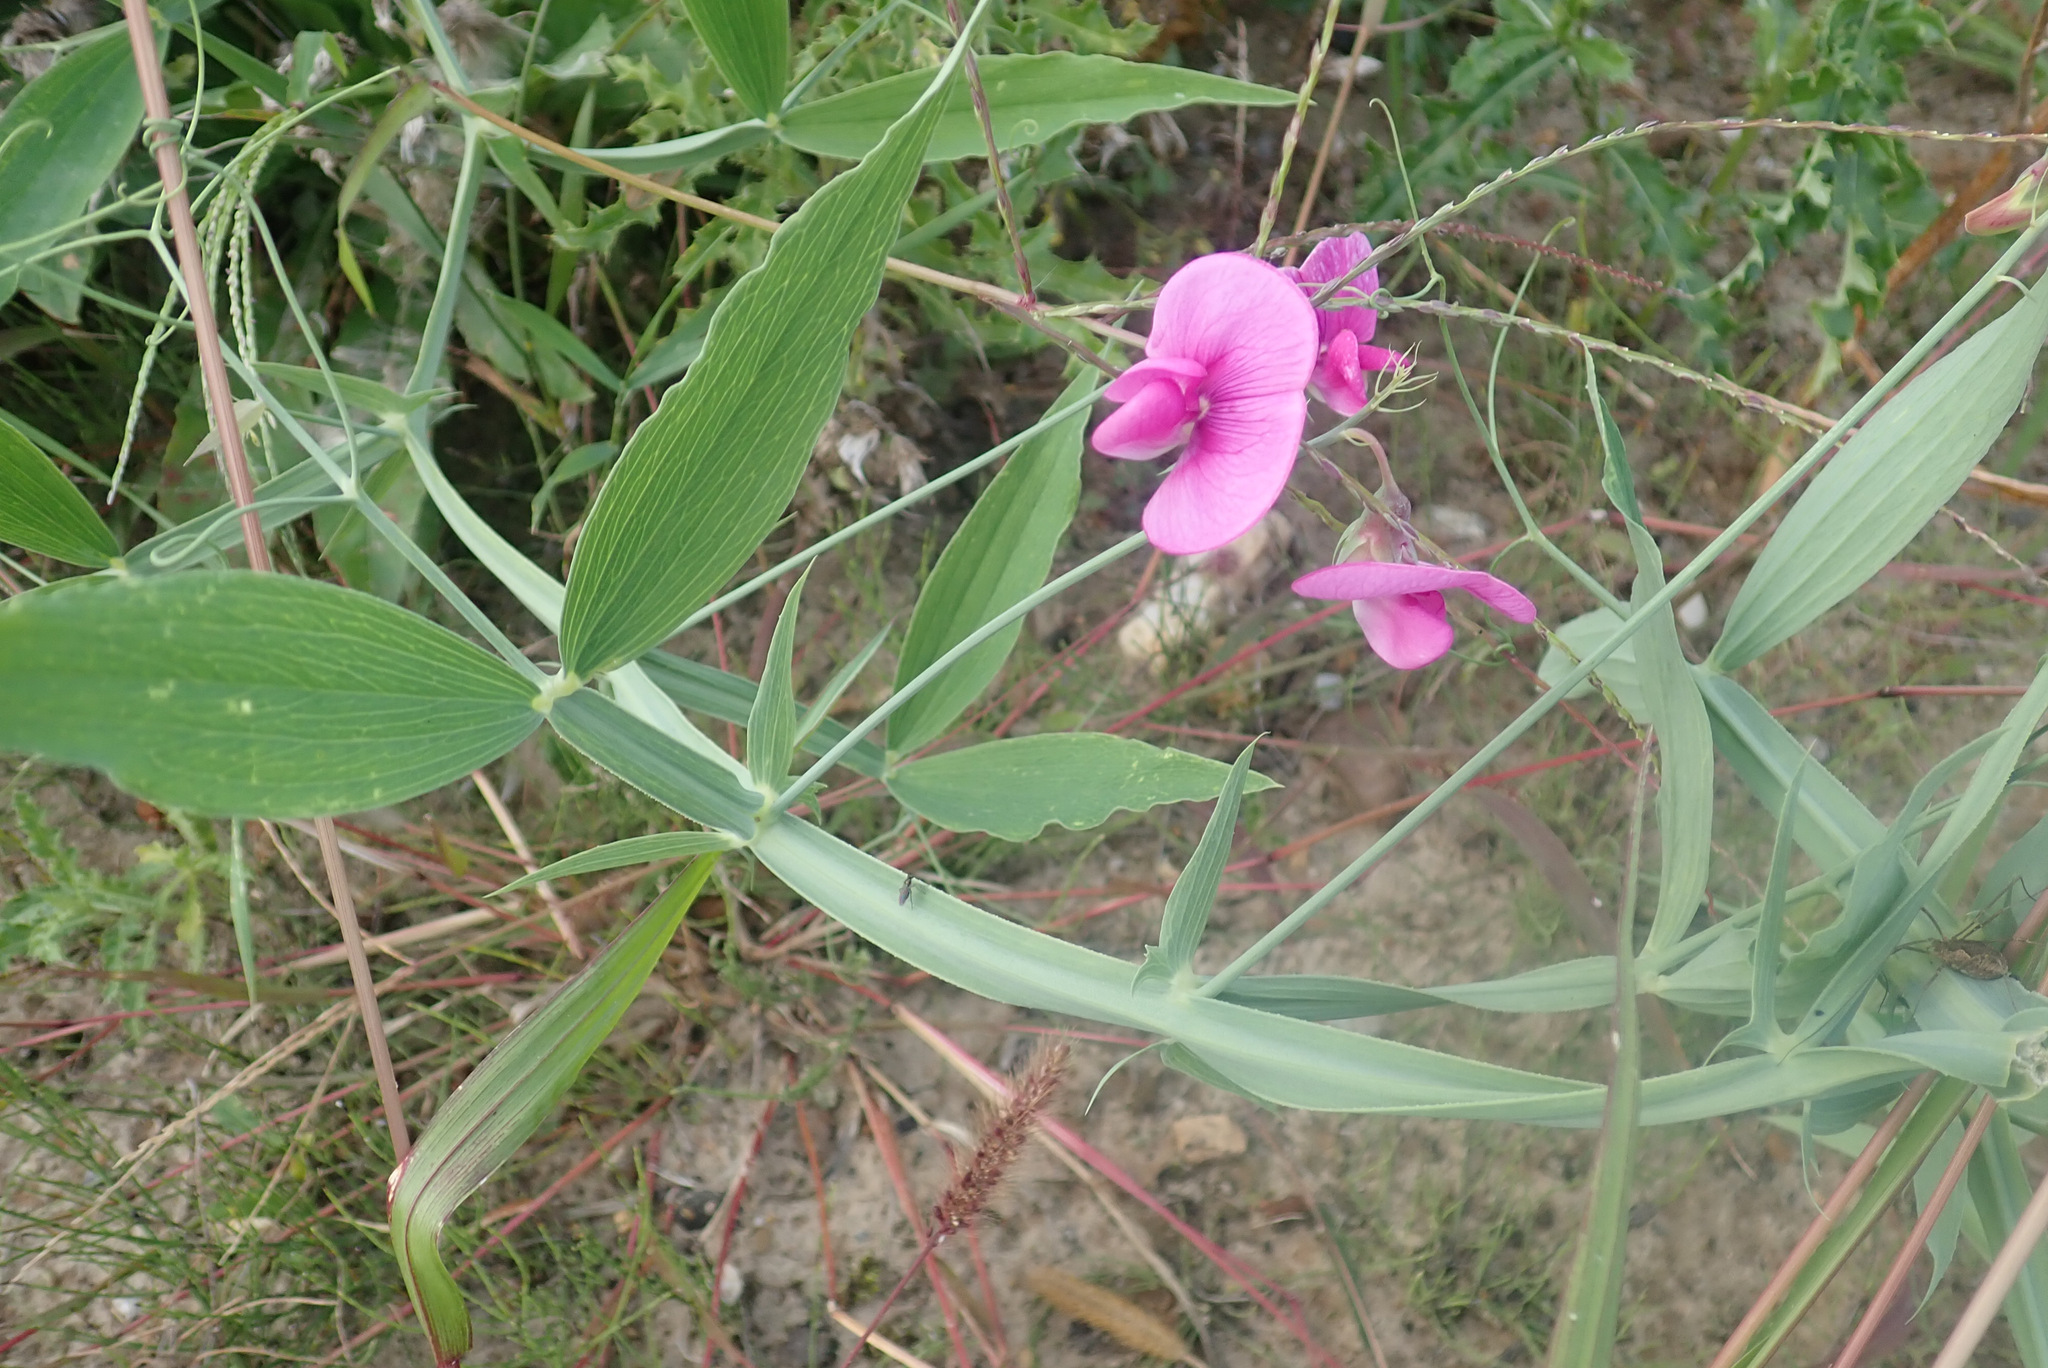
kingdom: Plantae
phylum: Tracheophyta
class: Magnoliopsida
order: Fabales
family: Fabaceae
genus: Lathyrus
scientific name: Lathyrus latifolius
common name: Perennial pea
